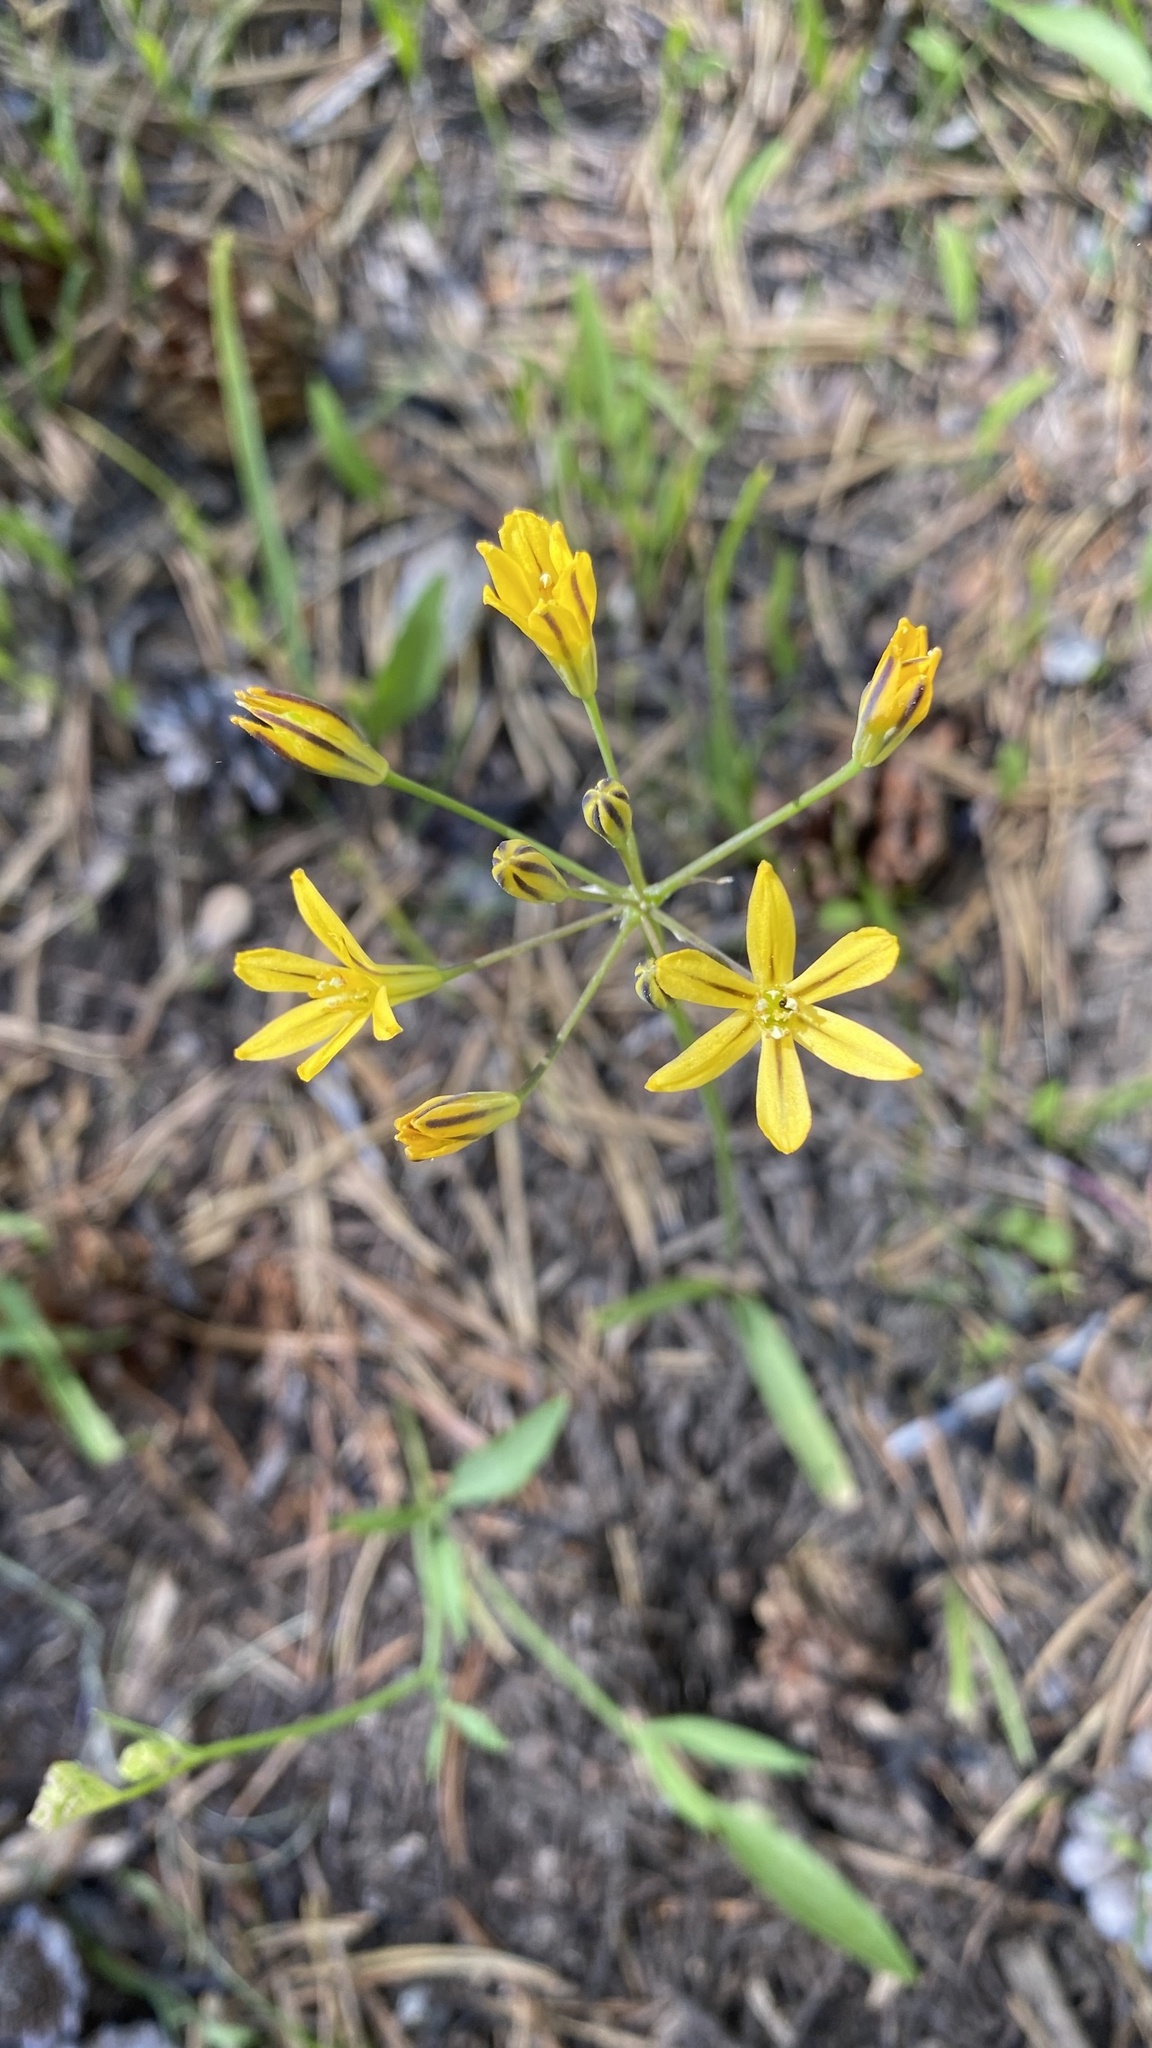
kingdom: Plantae
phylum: Tracheophyta
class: Liliopsida
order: Asparagales
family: Asparagaceae
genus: Triteleia
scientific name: Triteleia ixioides
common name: Yellow-brodiaea
